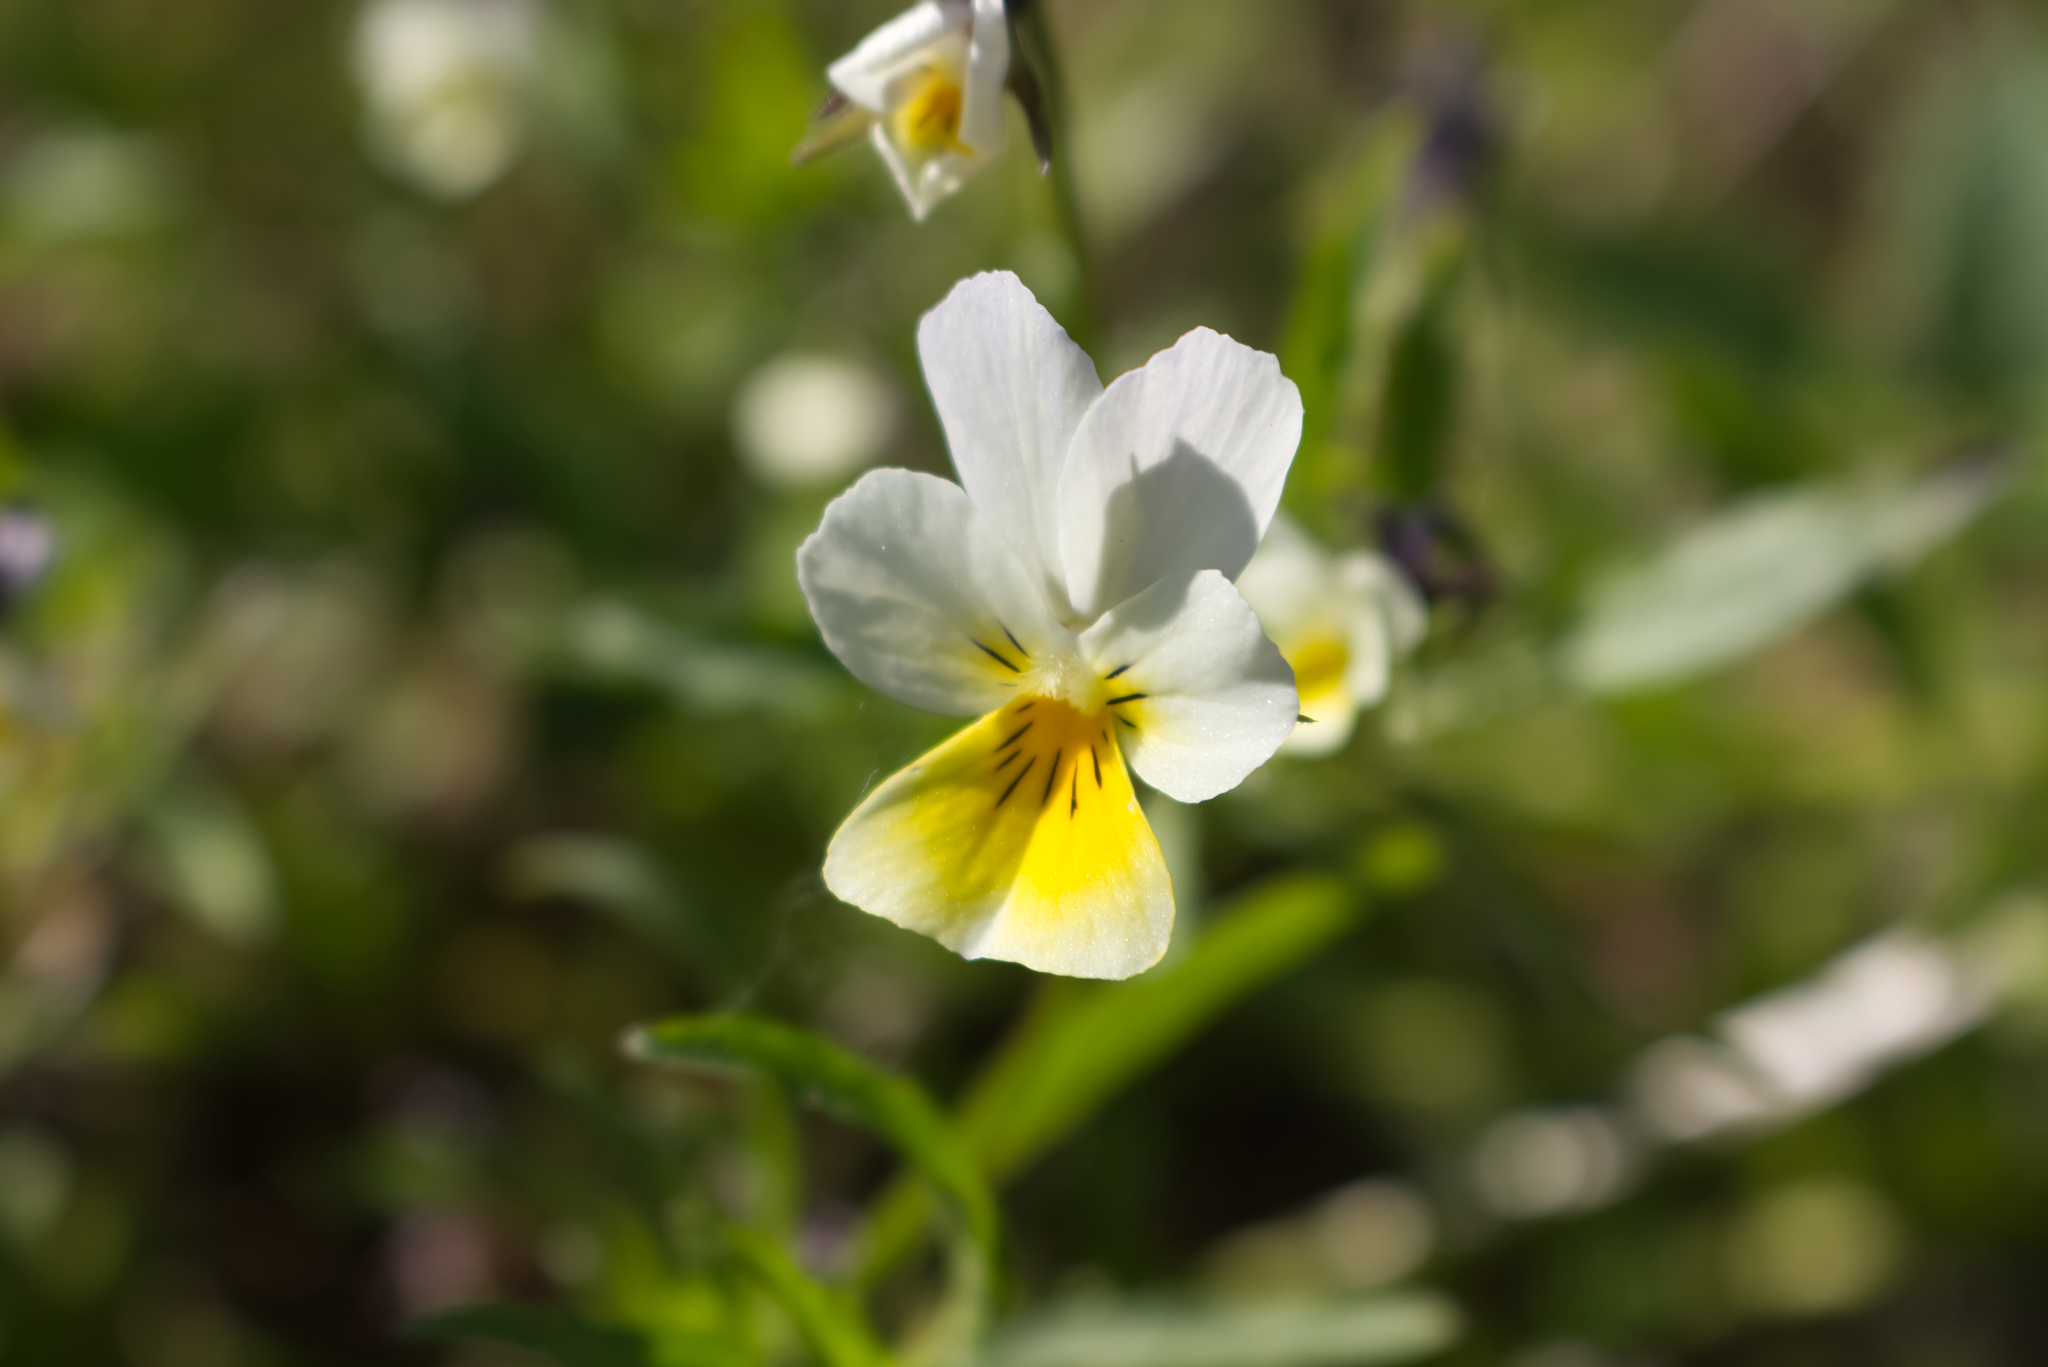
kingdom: Plantae
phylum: Tracheophyta
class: Magnoliopsida
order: Malpighiales
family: Violaceae
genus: Viola
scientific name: Viola arvensis
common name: Field pansy
